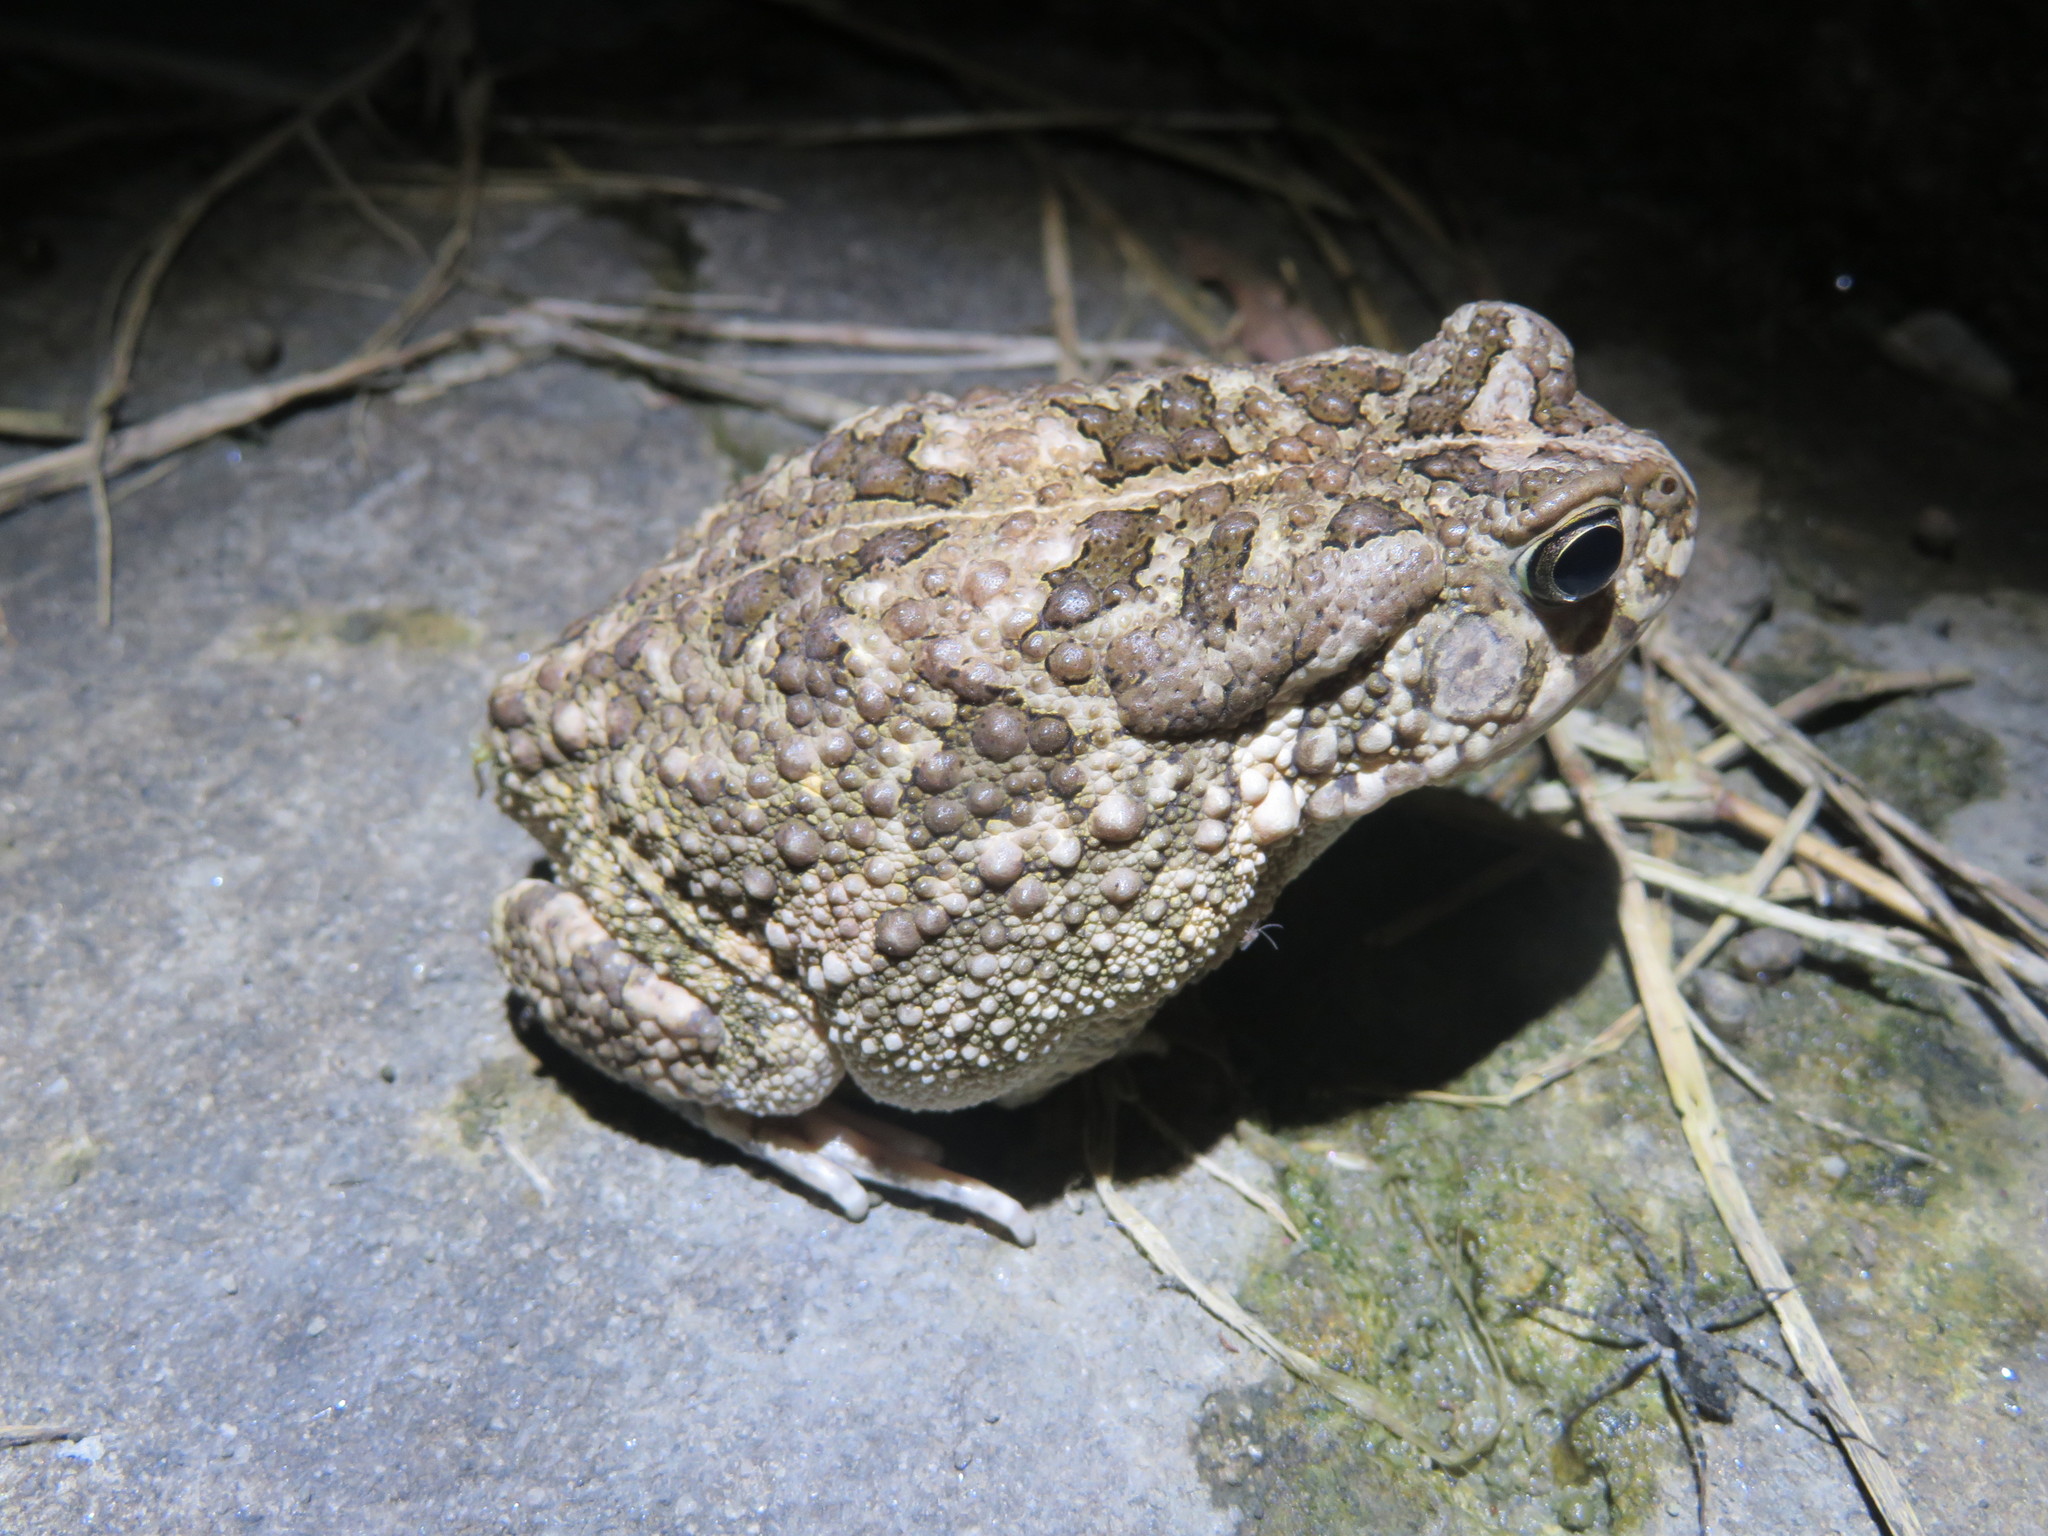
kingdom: Animalia
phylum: Chordata
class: Amphibia
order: Anura
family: Bufonidae
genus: Sclerophrys
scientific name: Sclerophrys gutturalis
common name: African common toad
